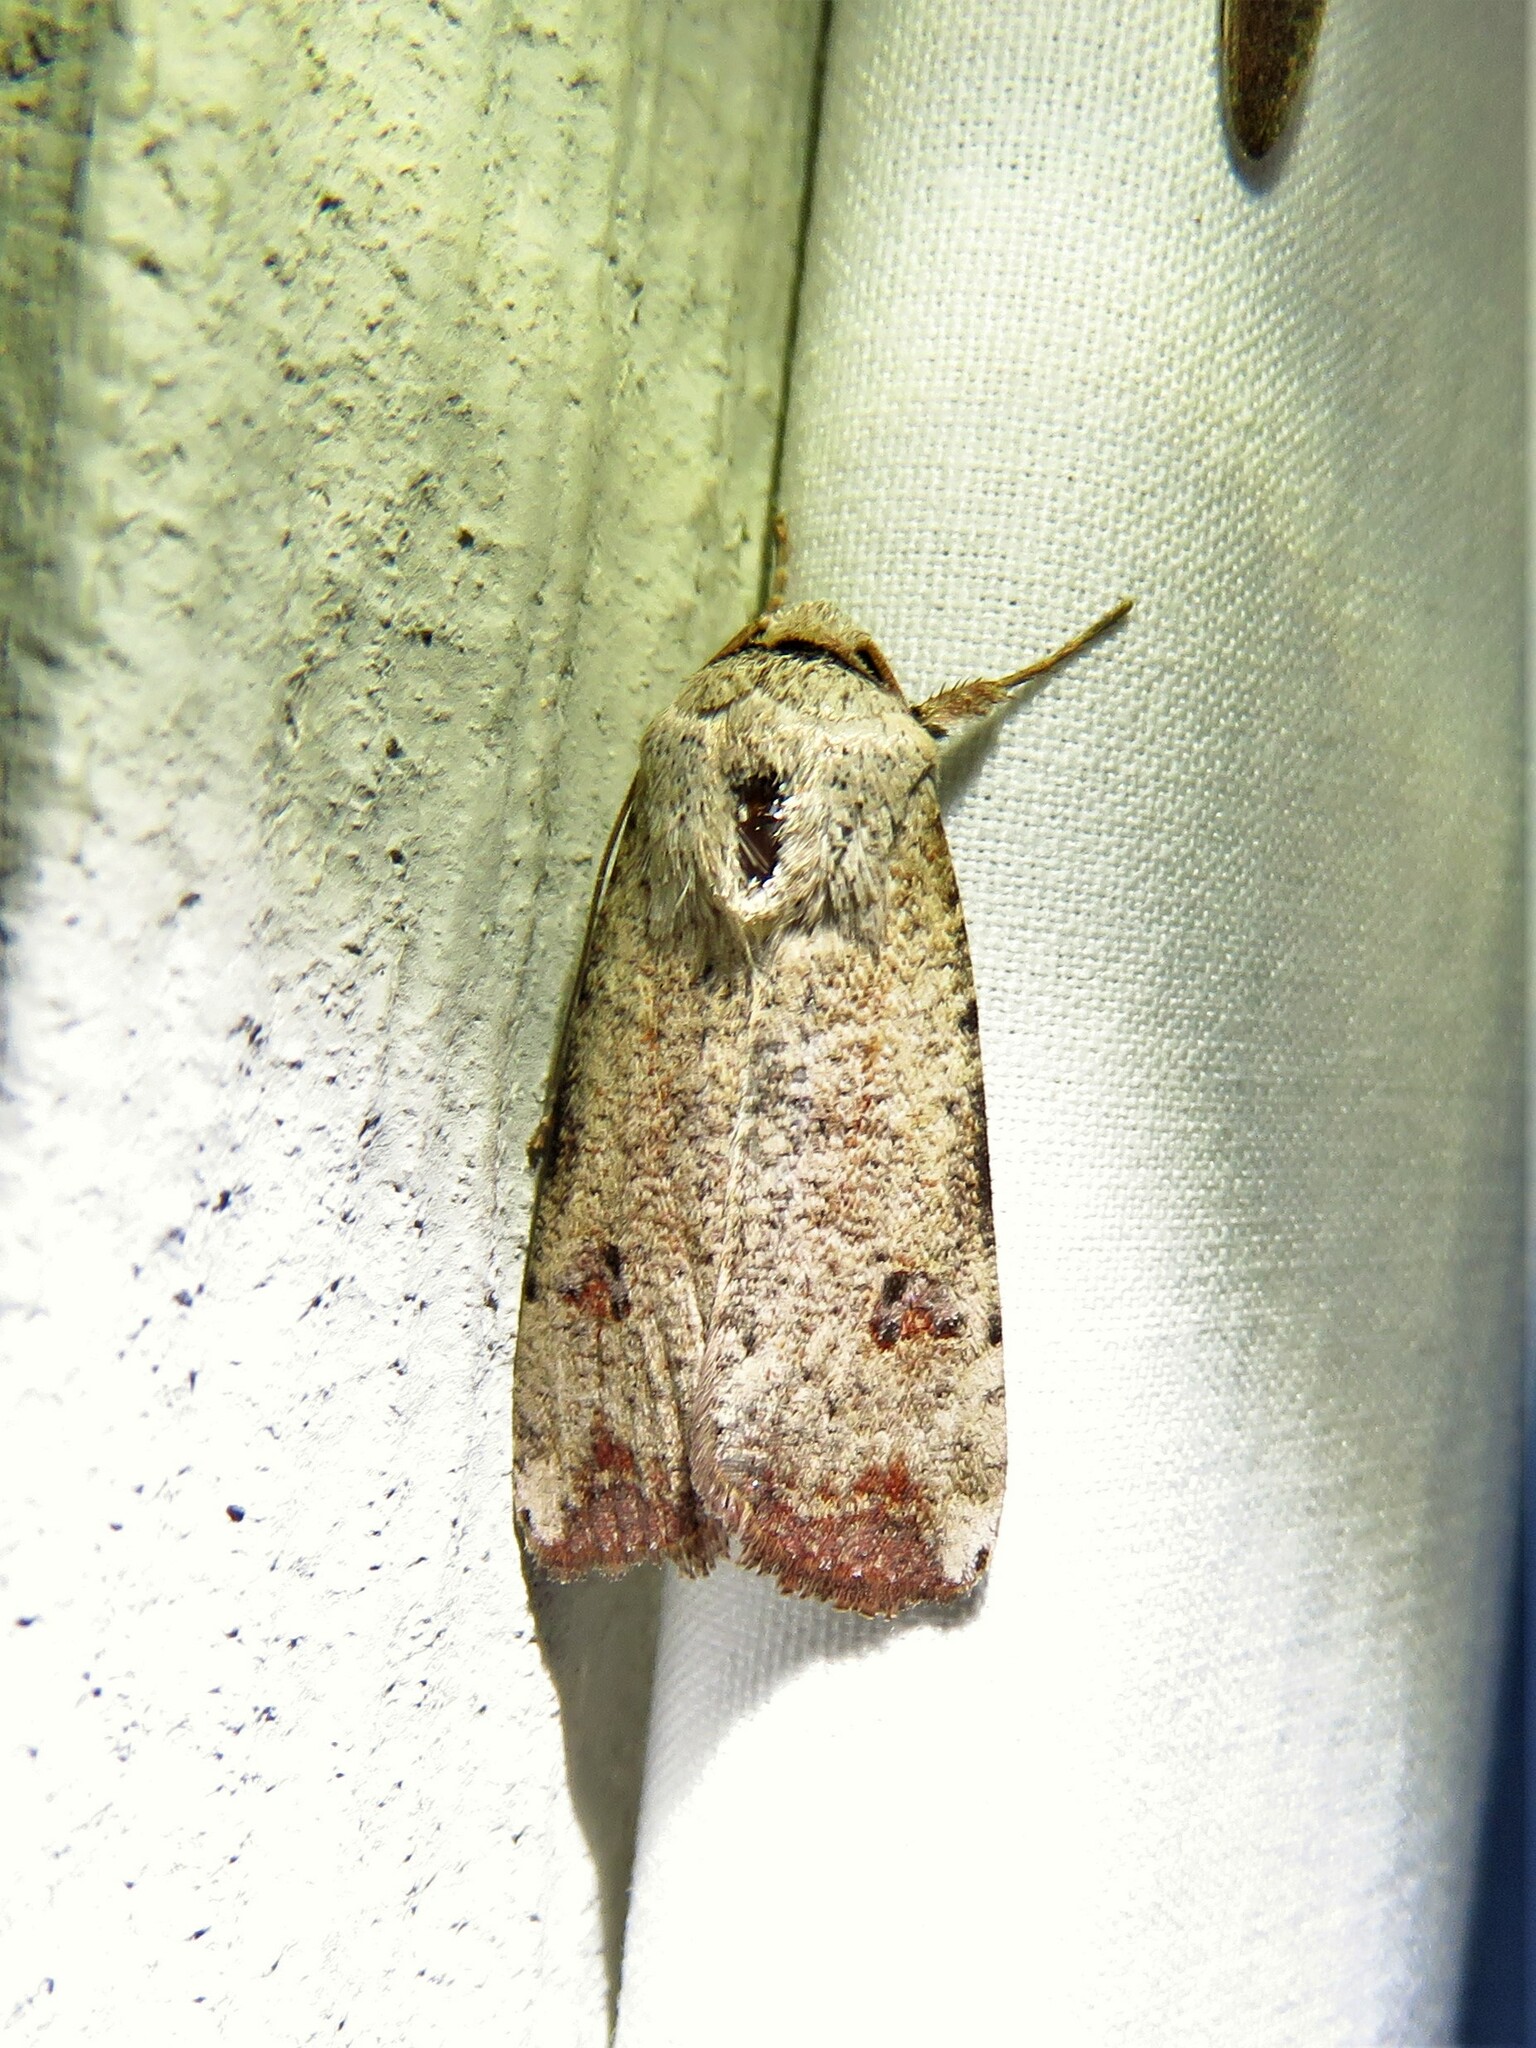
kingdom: Animalia
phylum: Arthropoda
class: Insecta
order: Lepidoptera
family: Noctuidae
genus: Anicla
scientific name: Anicla infecta
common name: Green cutworm
